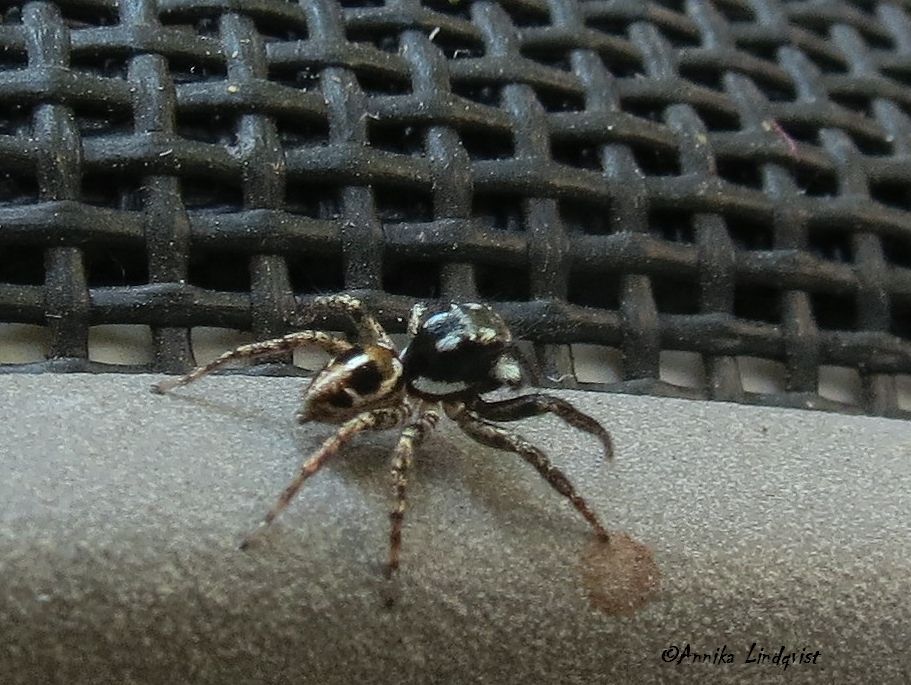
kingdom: Animalia
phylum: Arthropoda
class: Arachnida
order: Araneae
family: Salticidae
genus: Anasaitis
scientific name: Anasaitis canosa
